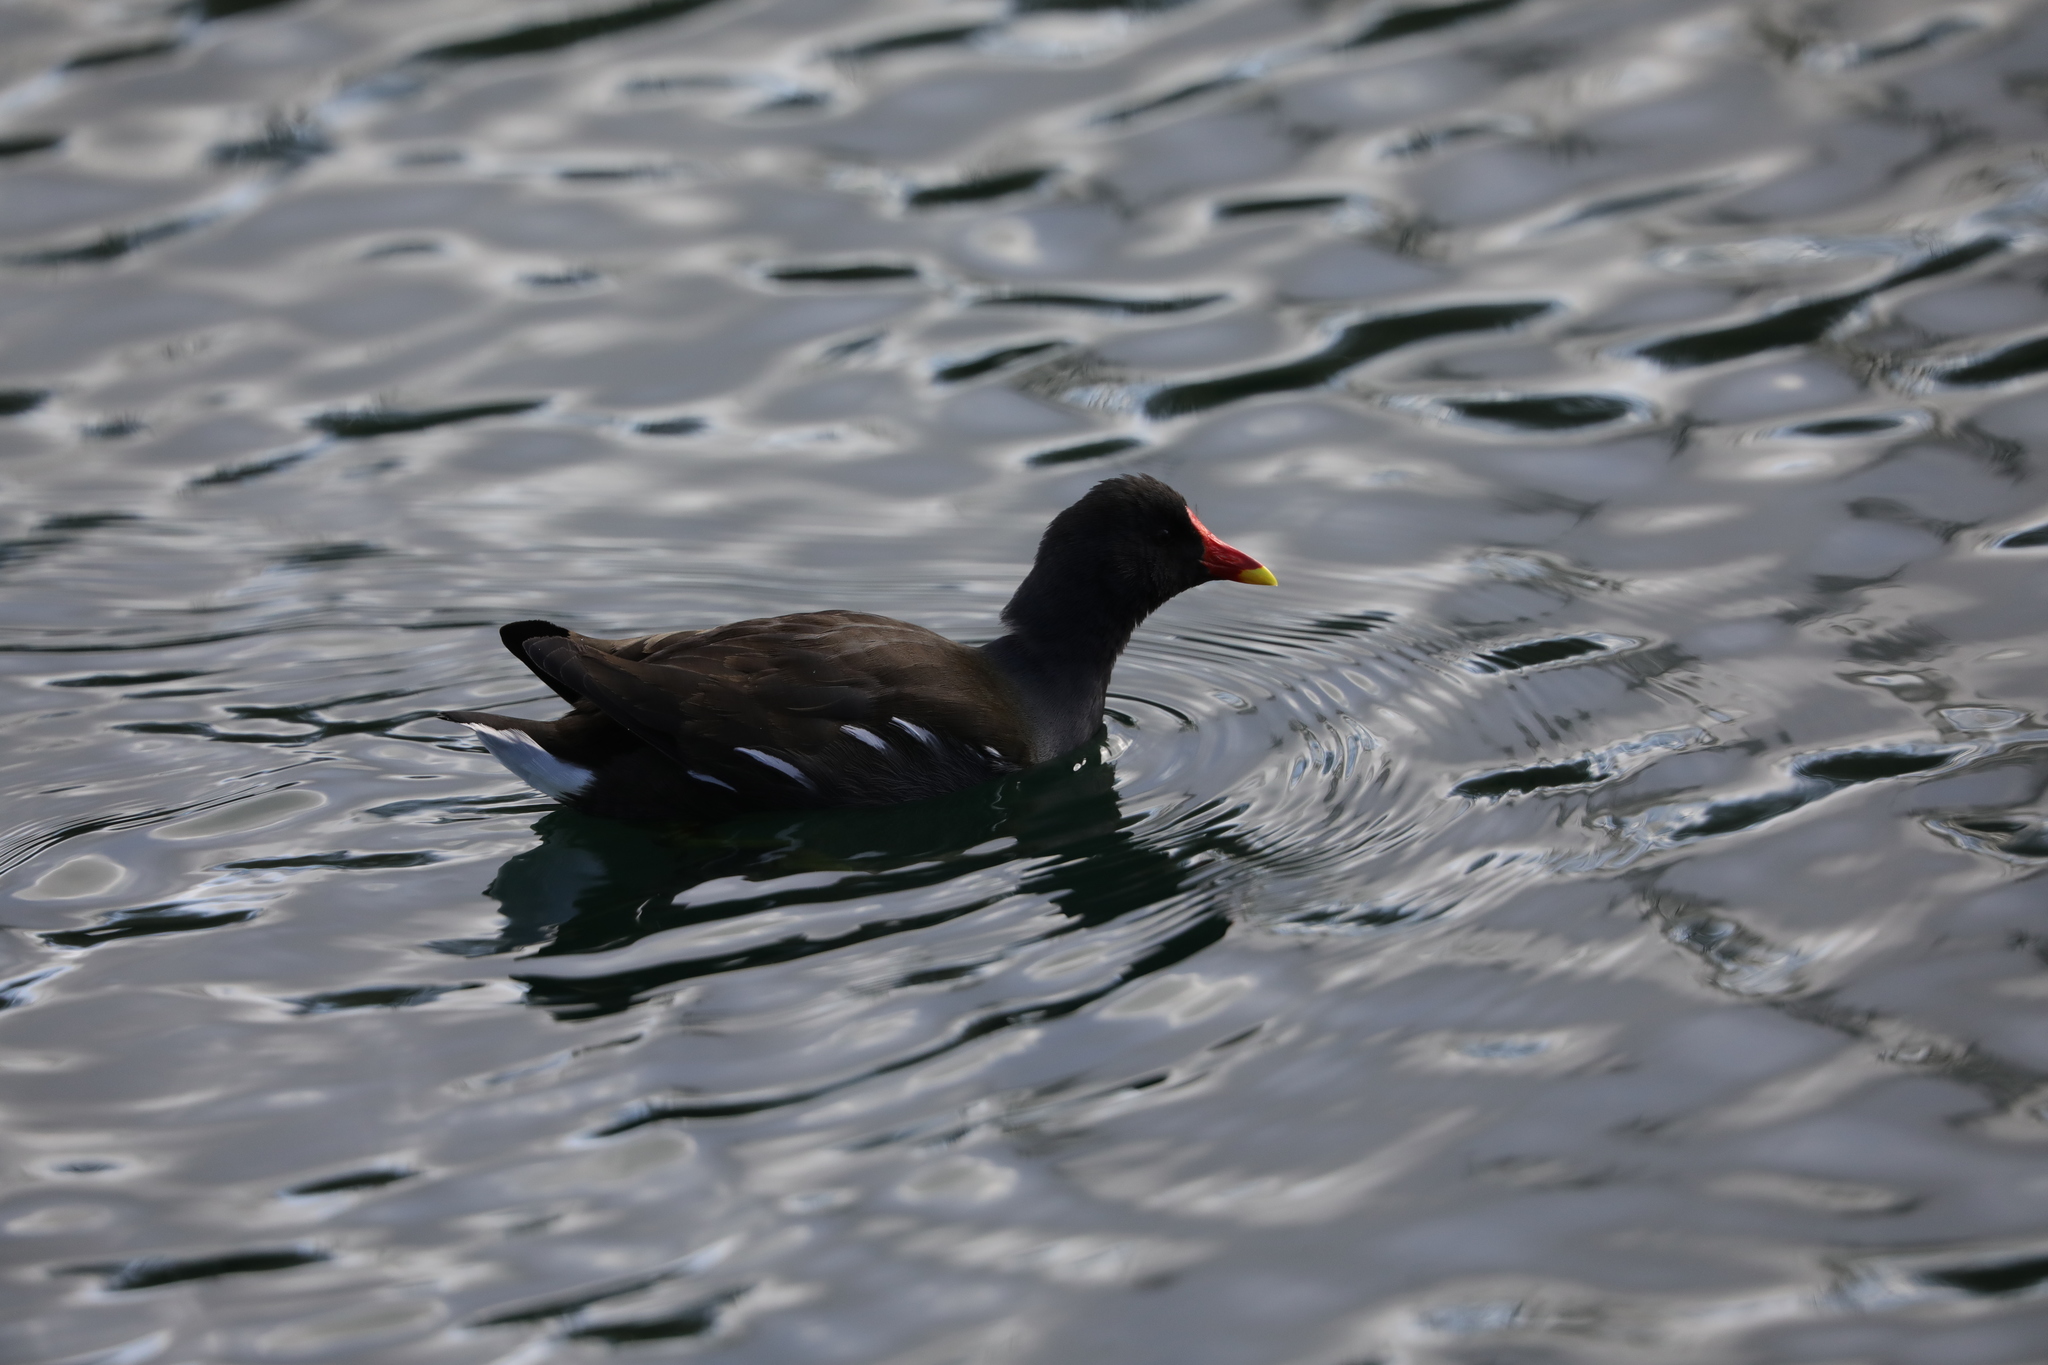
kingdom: Animalia
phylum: Chordata
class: Aves
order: Gruiformes
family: Rallidae
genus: Gallinula
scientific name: Gallinula chloropus
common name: Common moorhen
